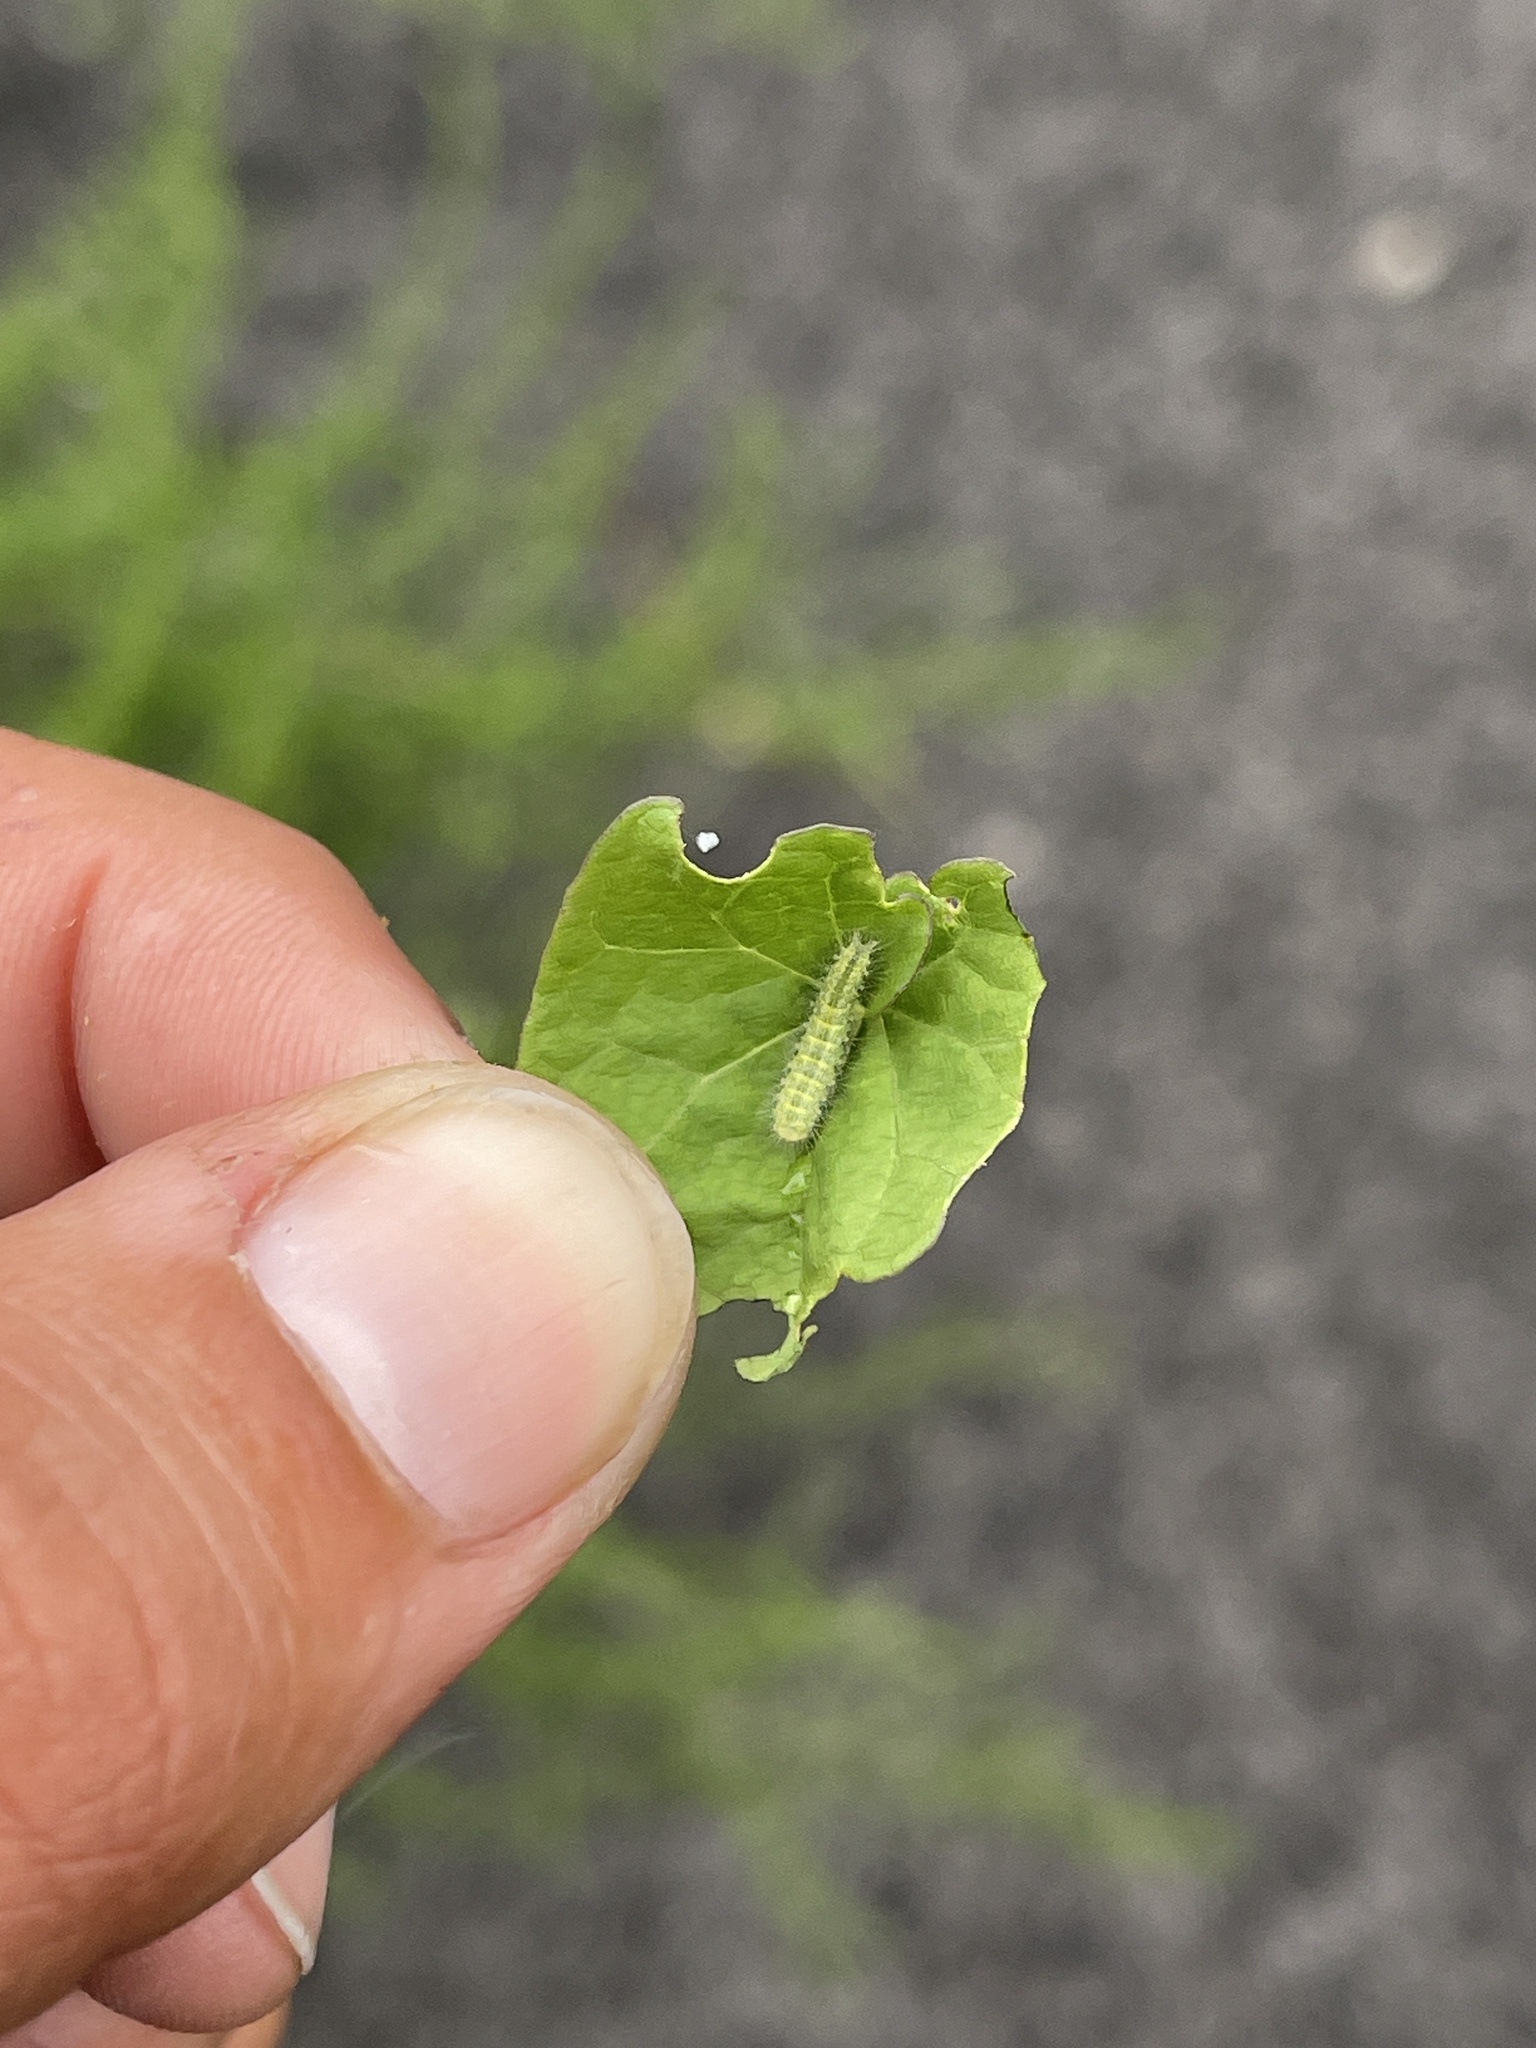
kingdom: Animalia
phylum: Arthropoda
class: Insecta
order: Lepidoptera
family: Pterophoridae
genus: Emmelina
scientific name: Emmelina monodactyla
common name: Common plume
